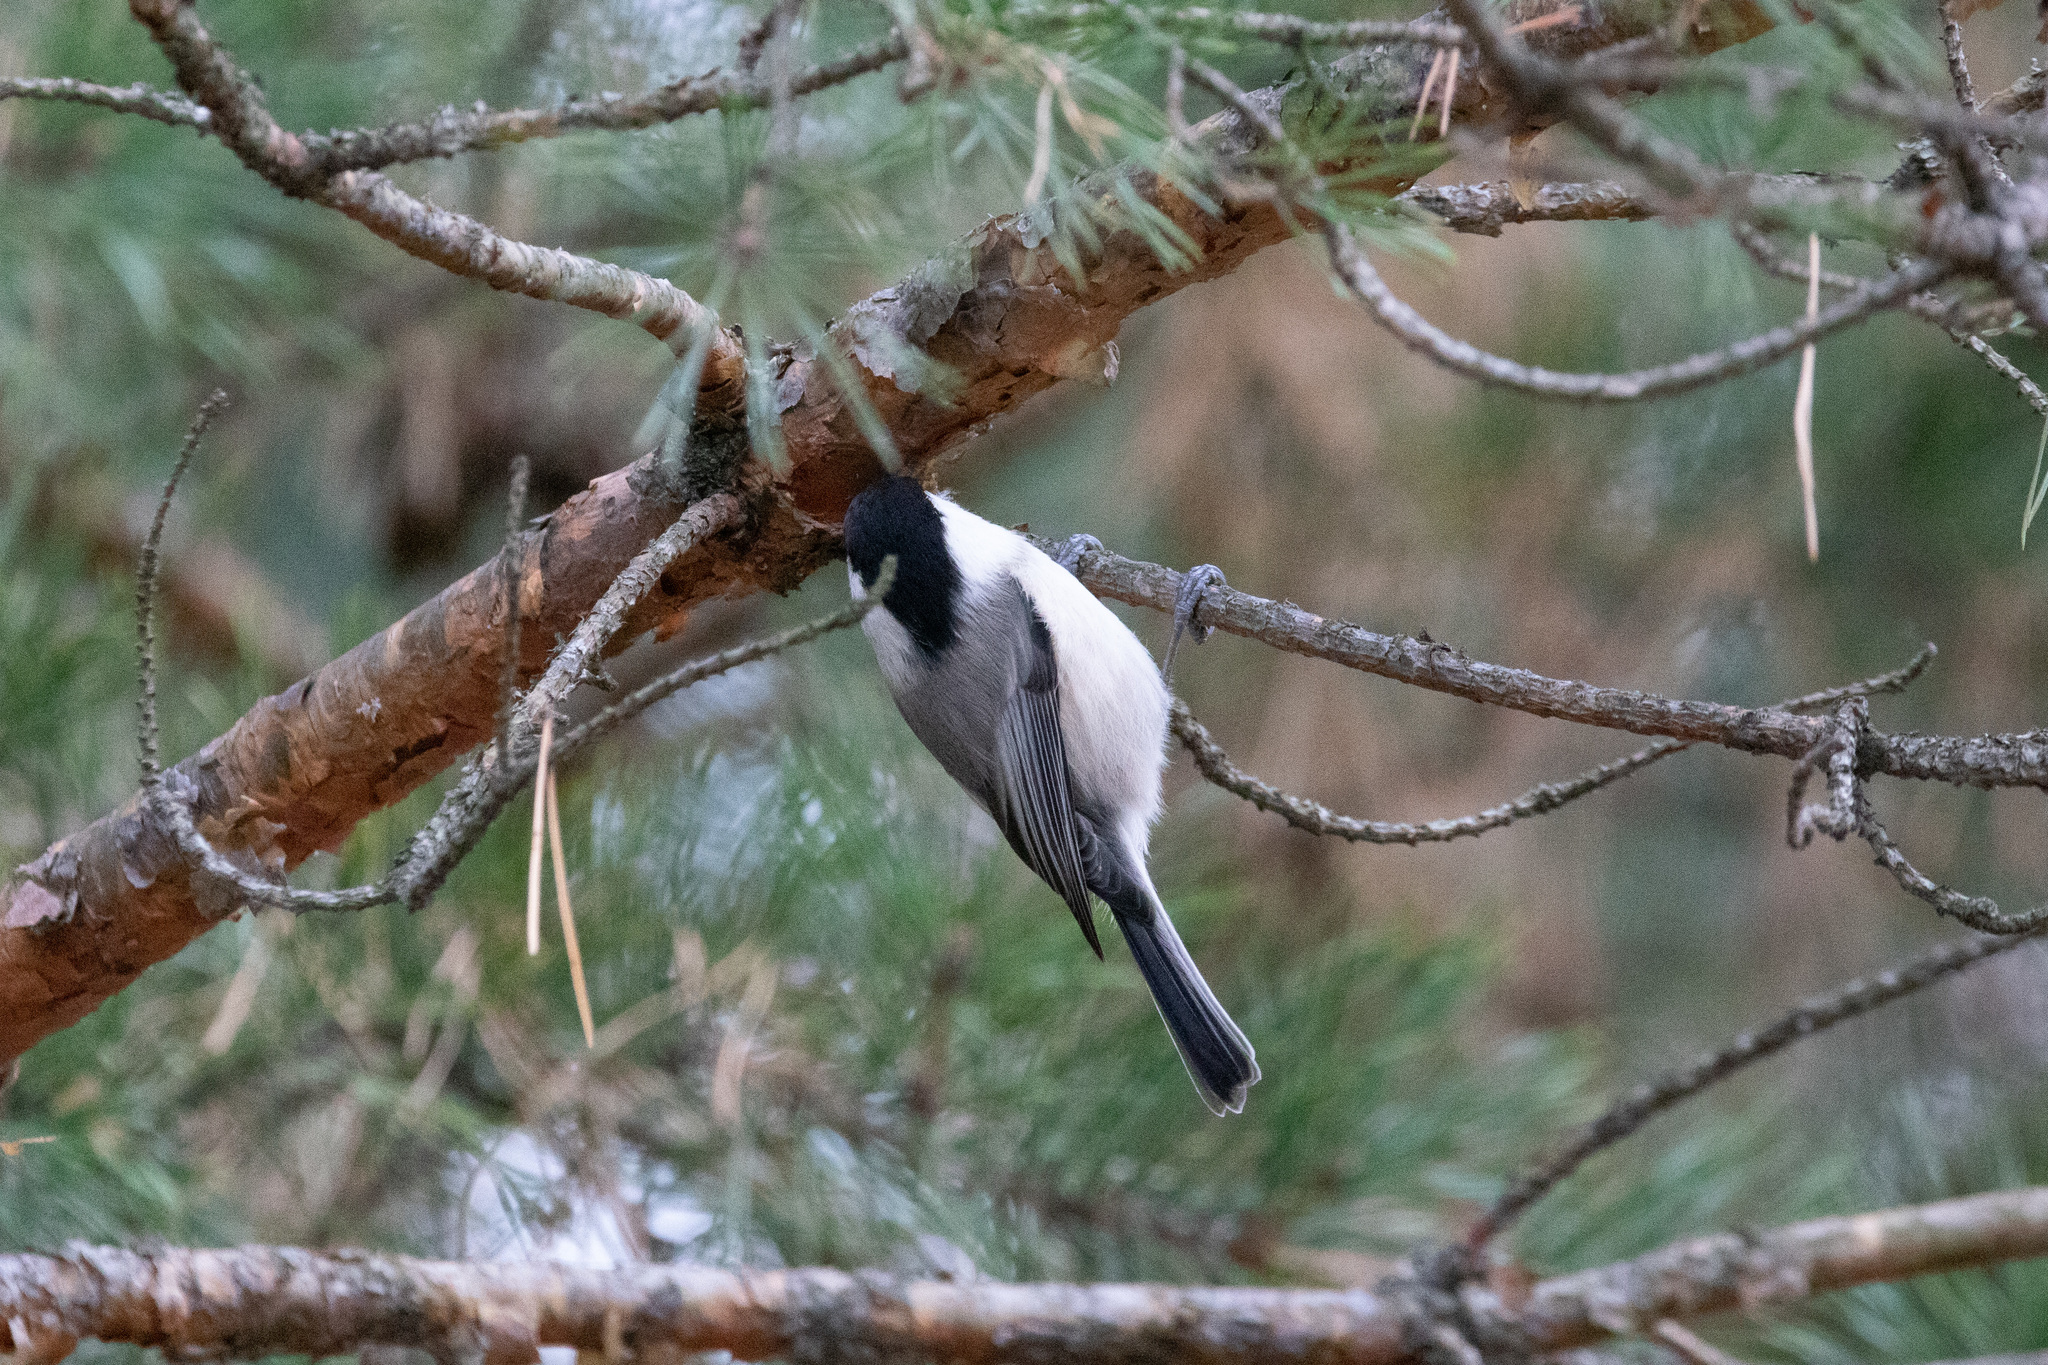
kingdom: Animalia
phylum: Chordata
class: Aves
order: Passeriformes
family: Paridae
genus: Poecile
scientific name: Poecile montanus
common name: Willow tit
